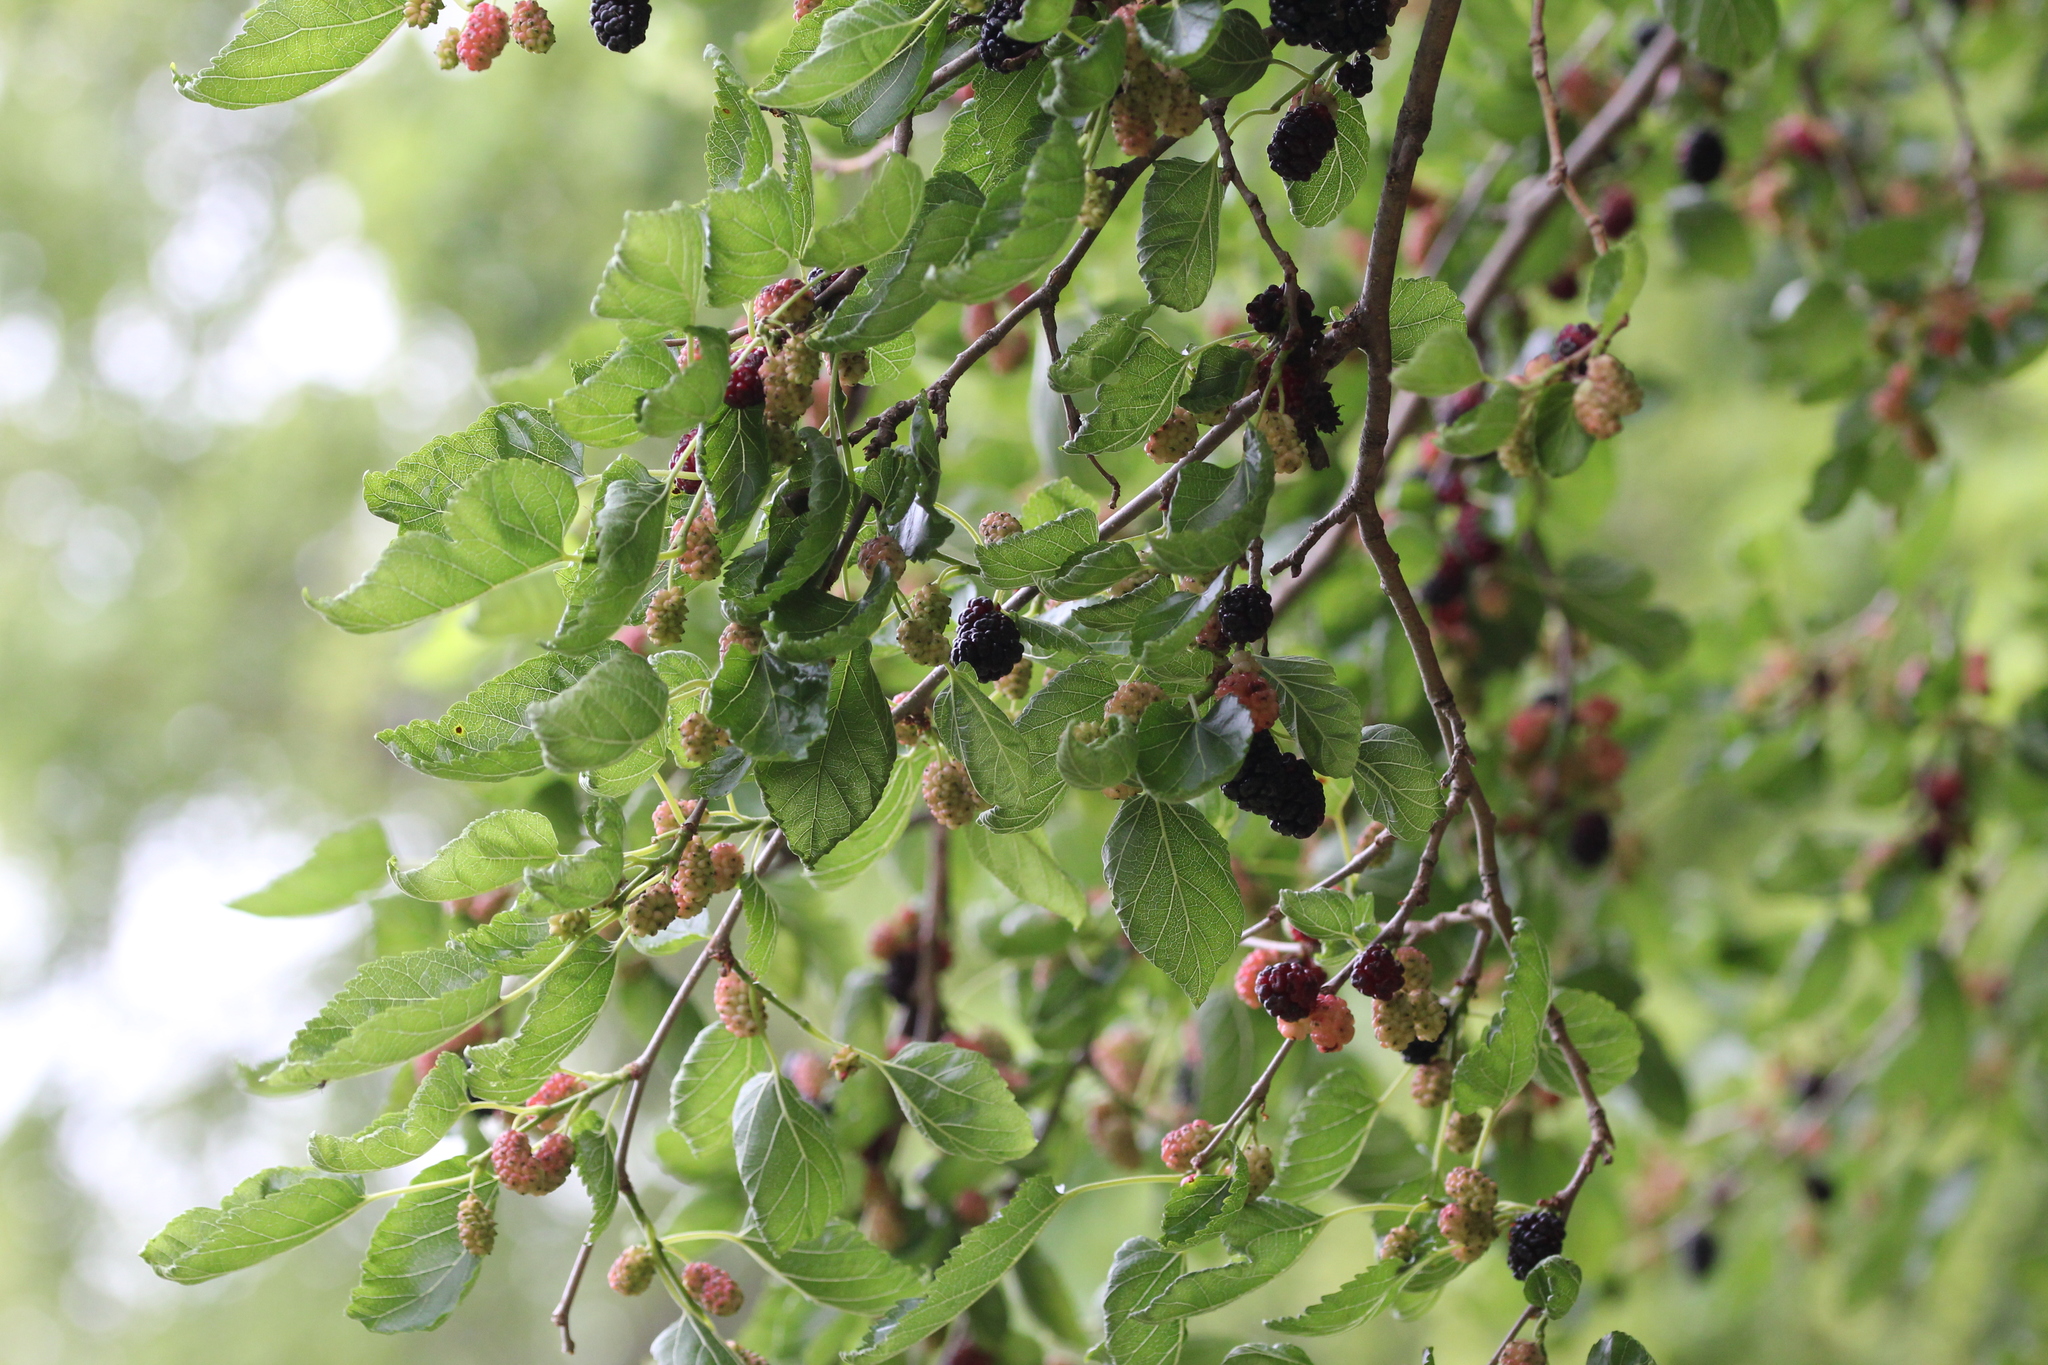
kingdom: Plantae
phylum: Tracheophyta
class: Magnoliopsida
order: Rosales
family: Moraceae
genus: Morus
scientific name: Morus alba
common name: White mulberry
